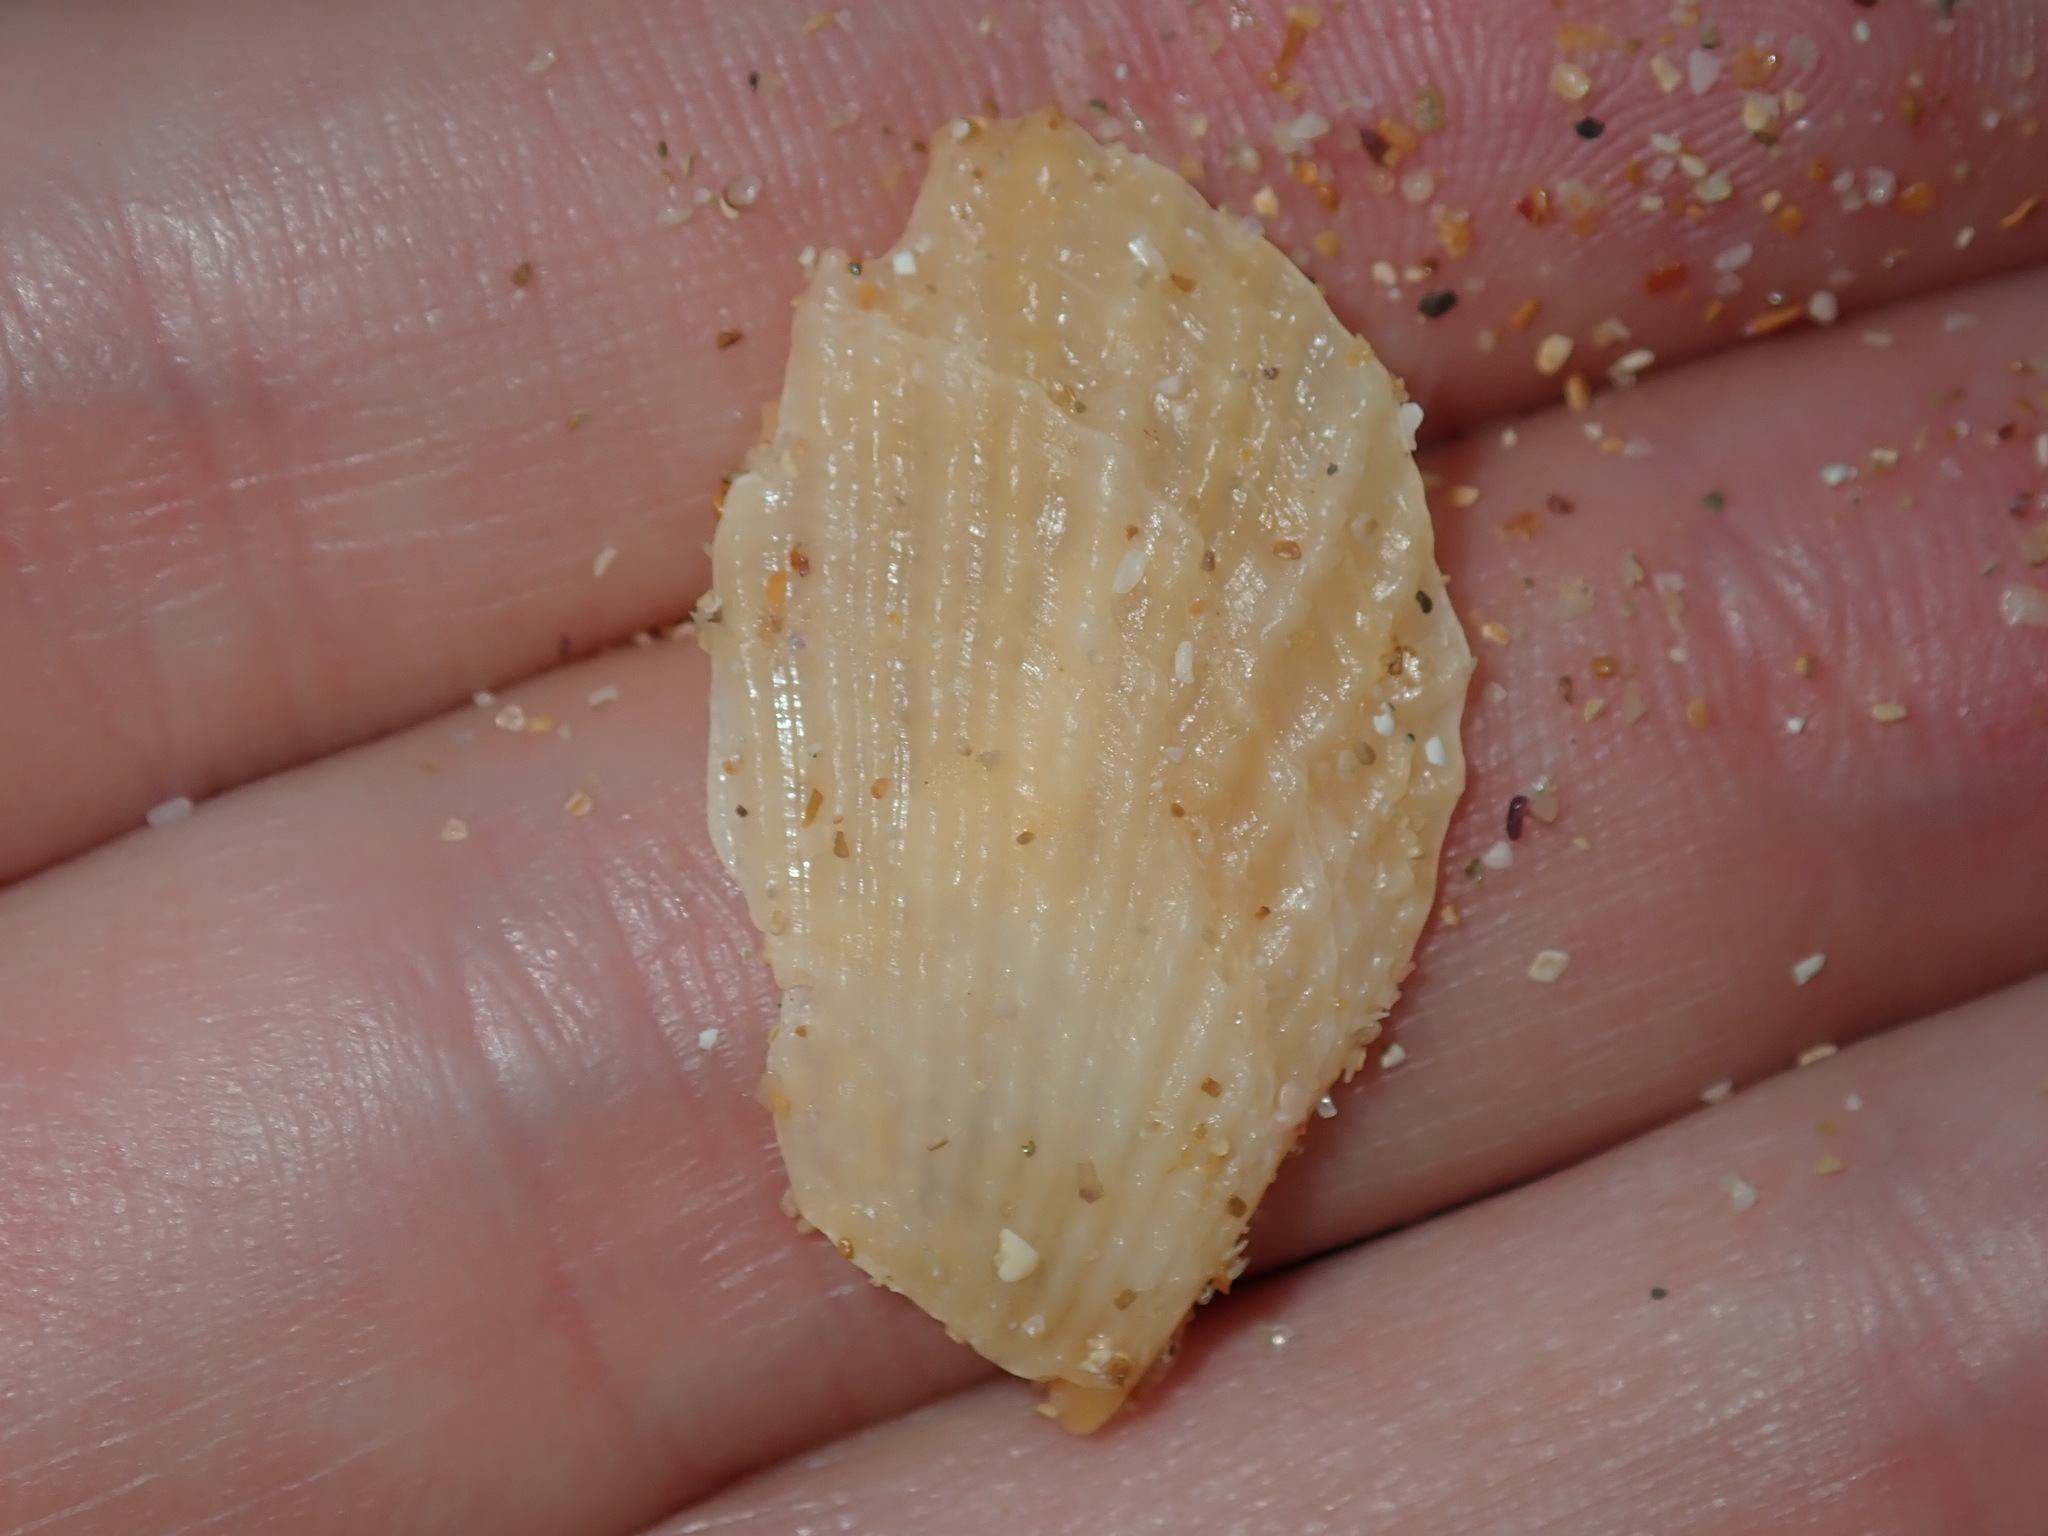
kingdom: Animalia
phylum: Mollusca
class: Bivalvia
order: Pectinida
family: Pectinidae
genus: Scaeochlamys
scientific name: Scaeochlamys livida
